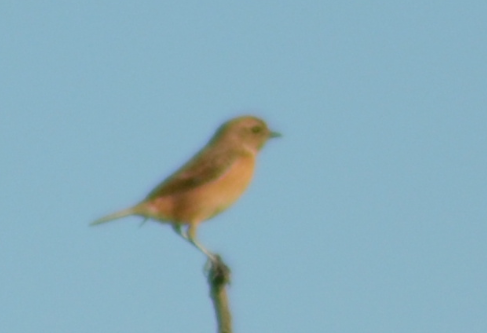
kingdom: Animalia
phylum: Chordata
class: Aves
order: Passeriformes
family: Muscicapidae
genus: Saxicola
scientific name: Saxicola rubicola
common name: European stonechat
